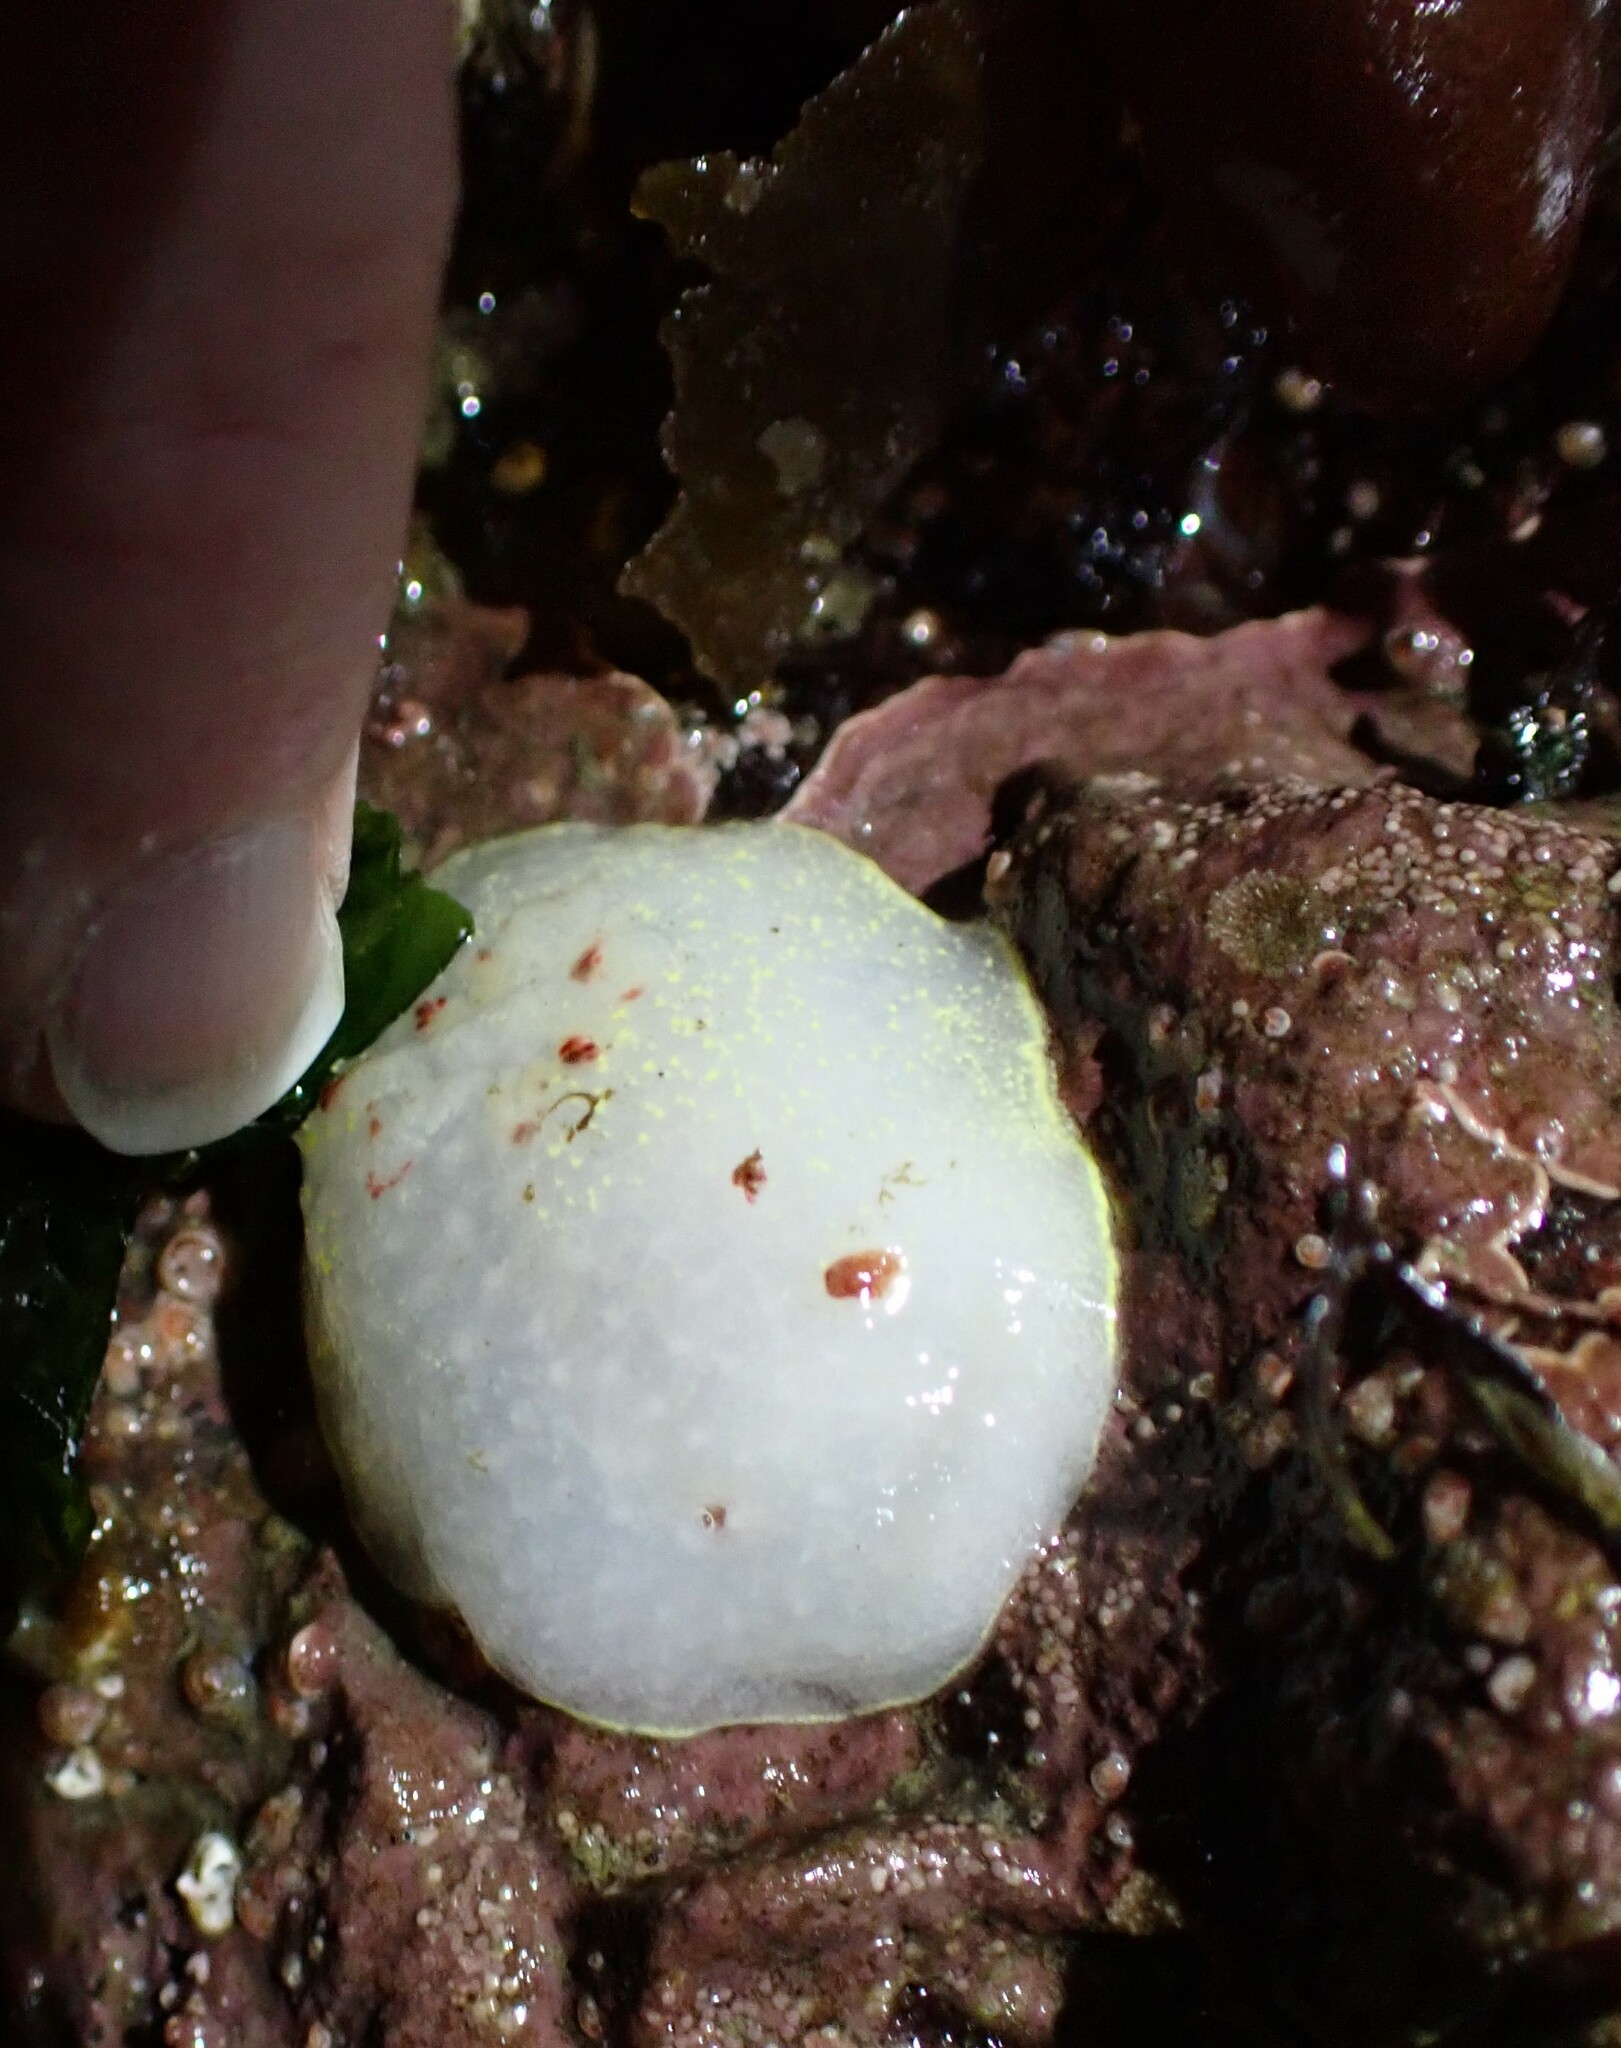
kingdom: Animalia
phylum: Mollusca
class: Gastropoda
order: Nudibranchia
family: Onchidorididae
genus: Acanthodoris
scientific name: Acanthodoris nanaimoensis
